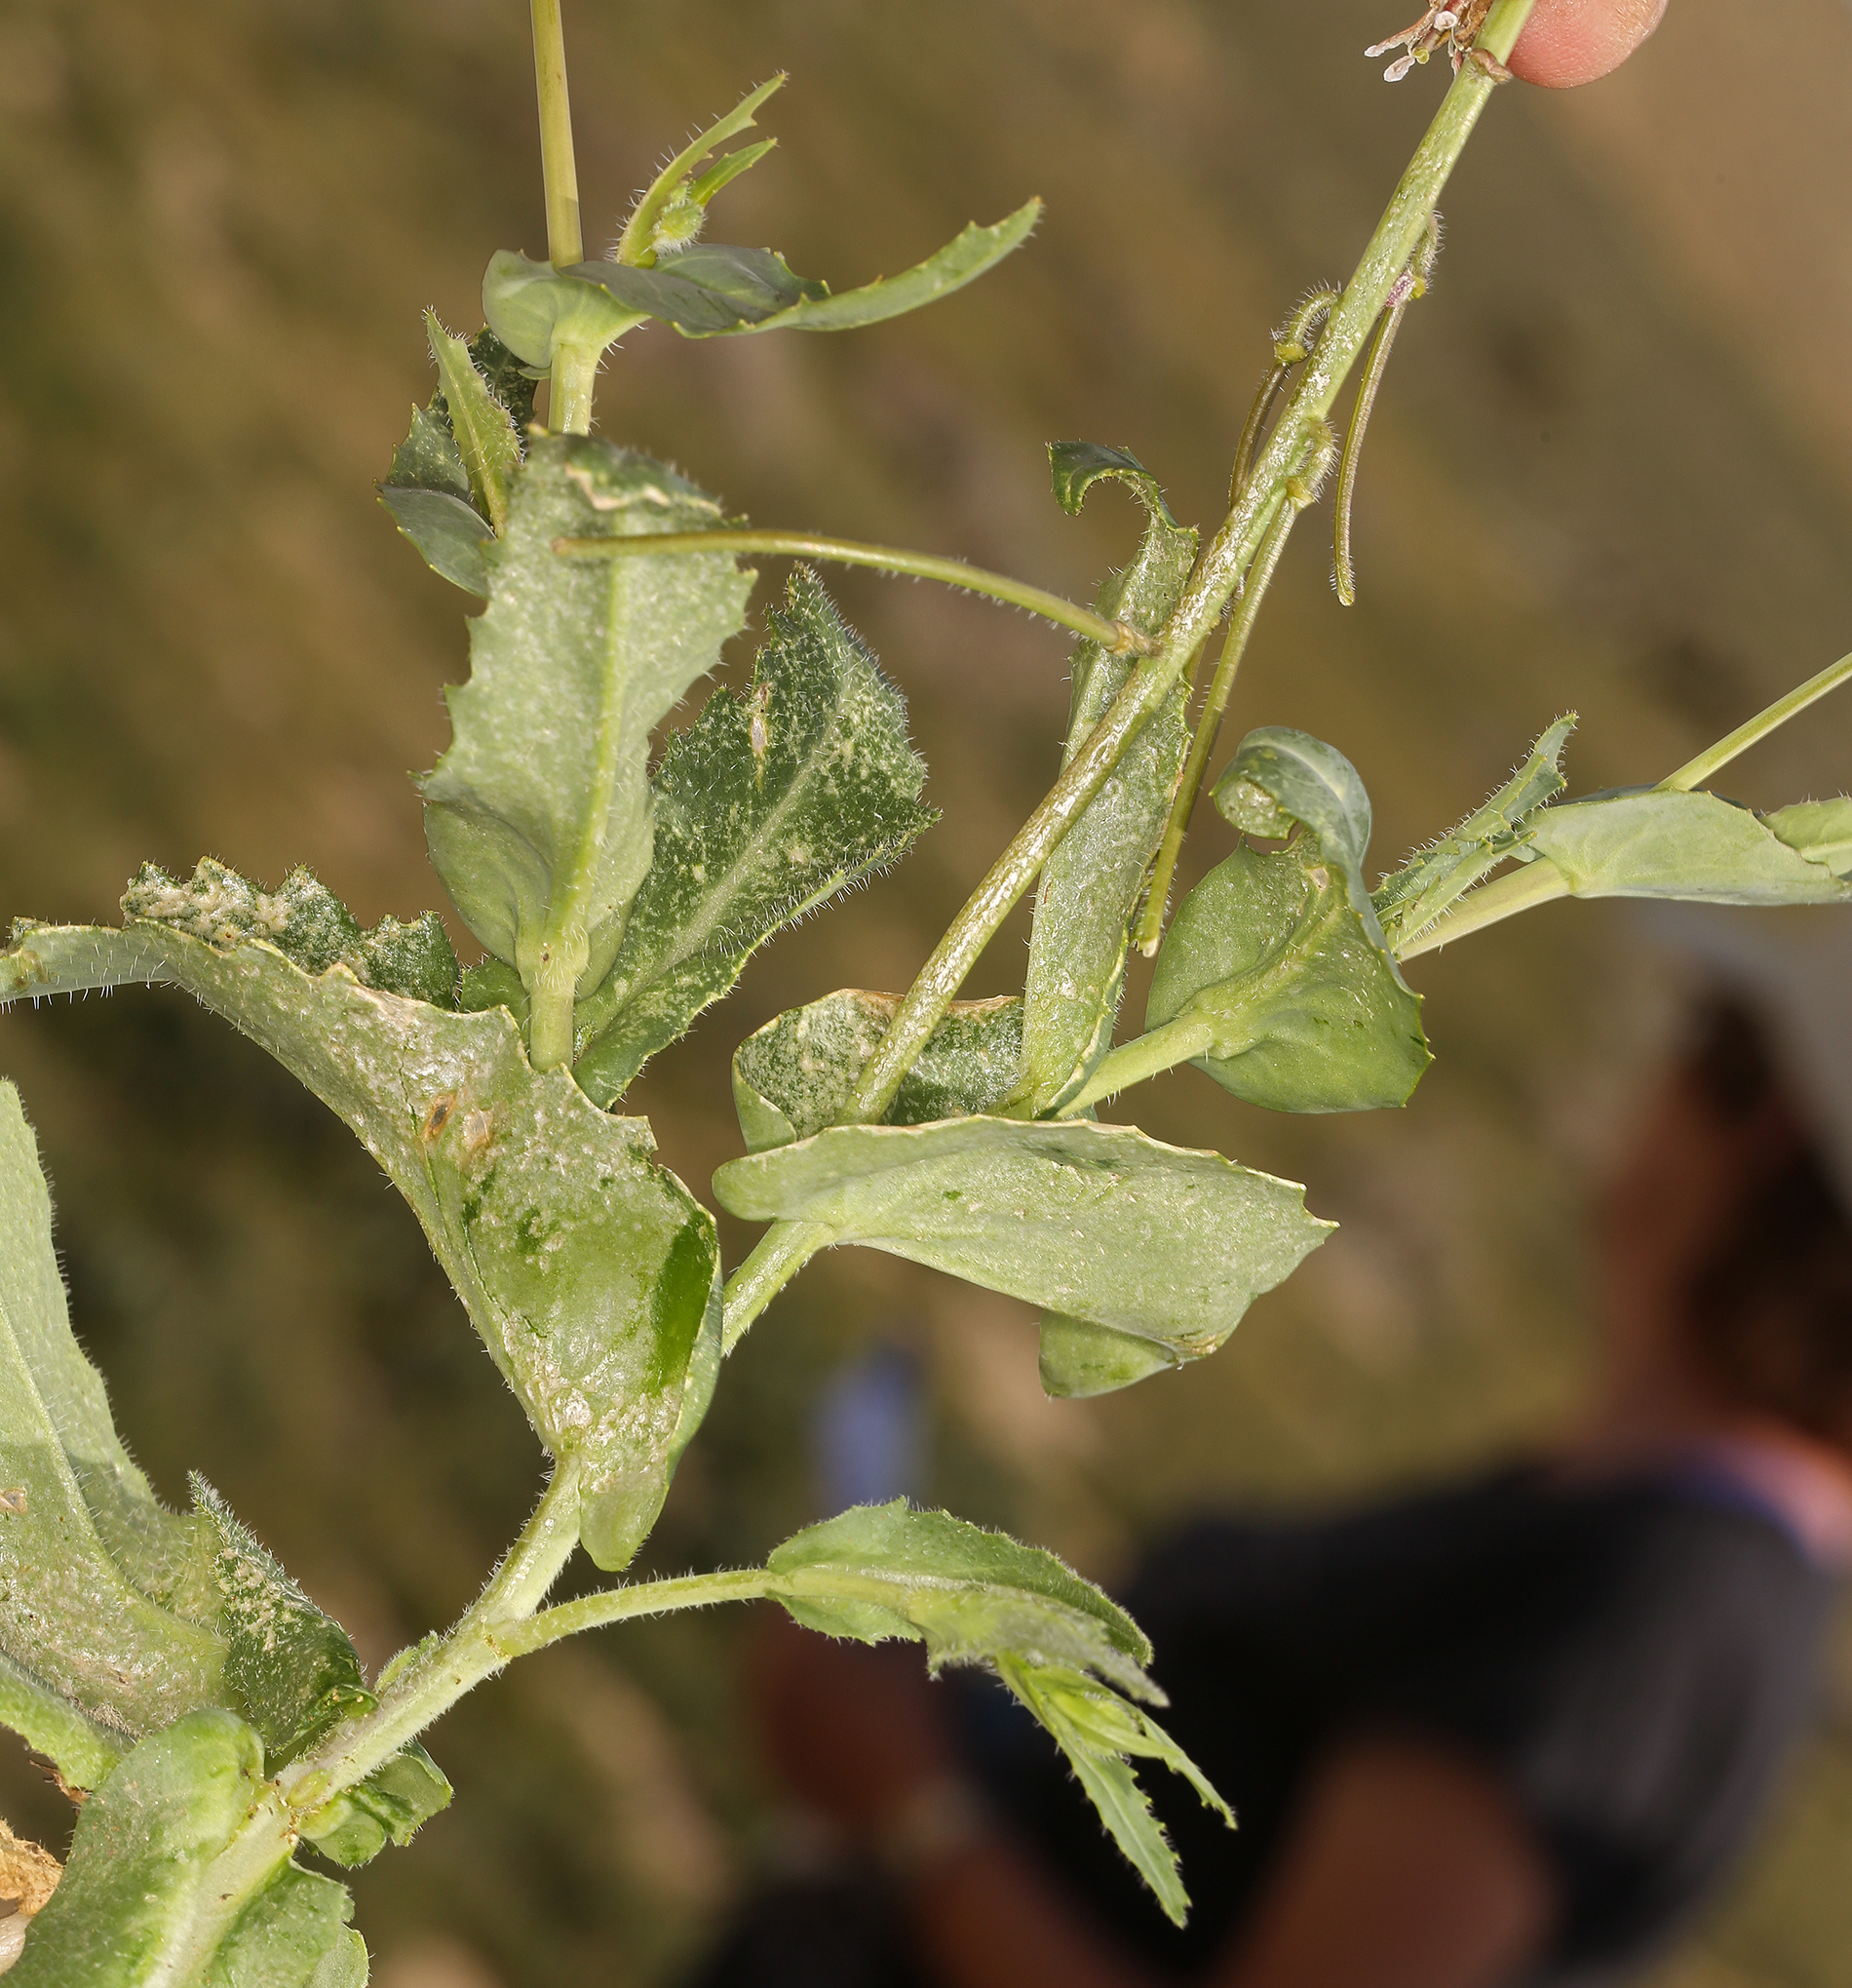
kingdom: Plantae
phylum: Tracheophyta
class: Magnoliopsida
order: Brassicales
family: Brassicaceae
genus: Streptanthus
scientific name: Streptanthus coulteri
